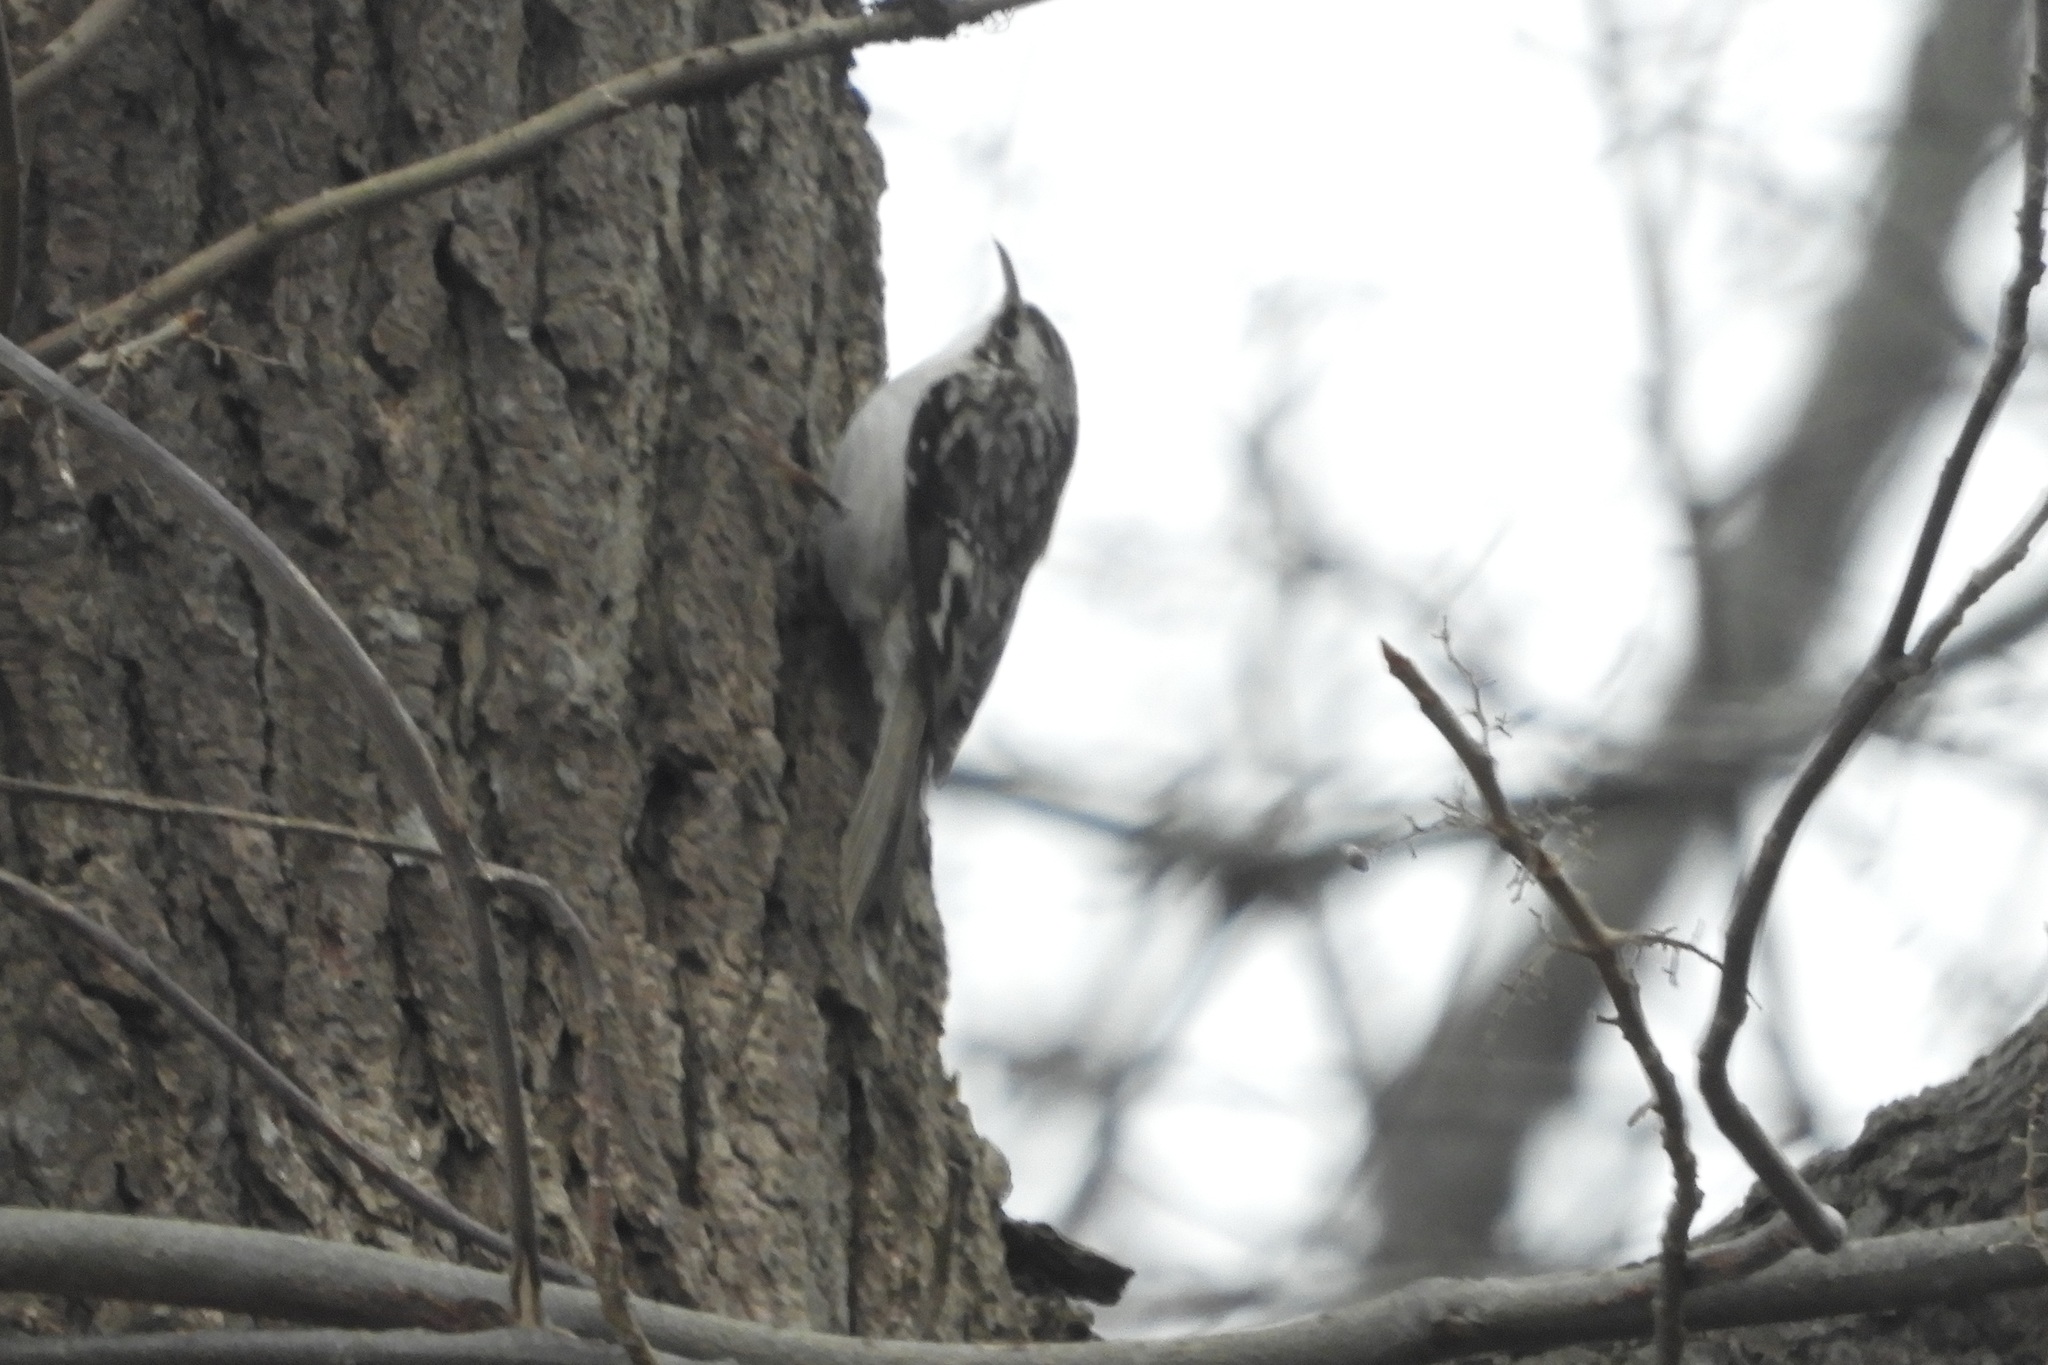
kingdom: Animalia
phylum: Chordata
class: Aves
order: Passeriformes
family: Certhiidae
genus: Certhia
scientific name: Certhia americana
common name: Brown creeper
